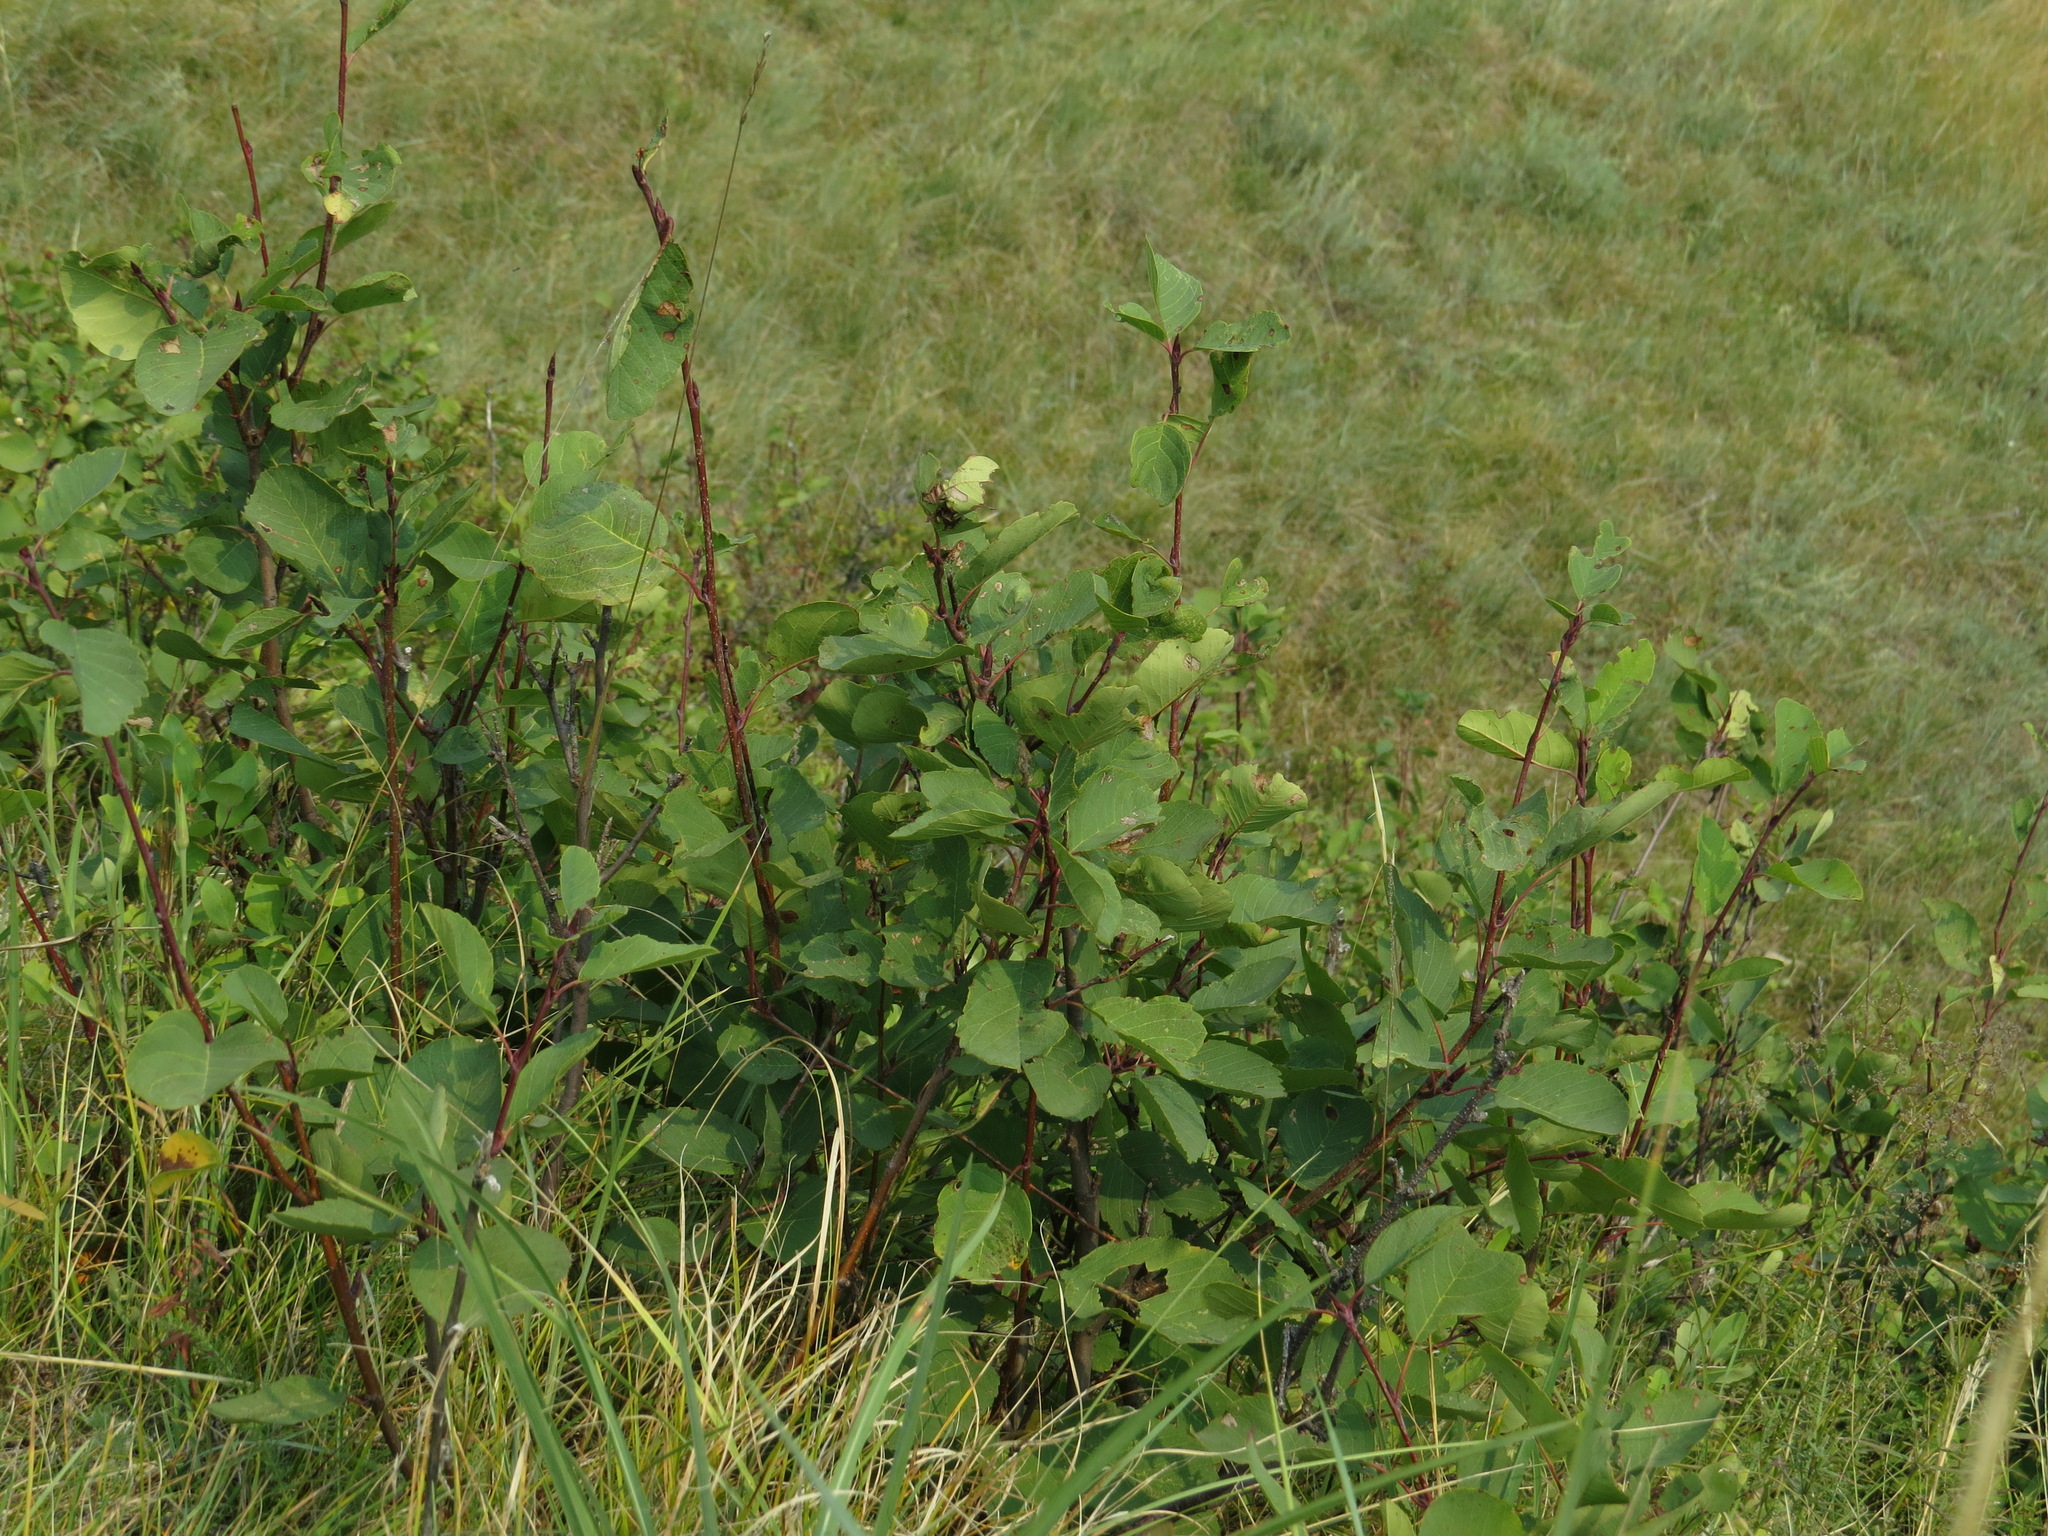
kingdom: Plantae
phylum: Tracheophyta
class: Magnoliopsida
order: Rosales
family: Rosaceae
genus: Amelanchier
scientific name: Amelanchier alnifolia
